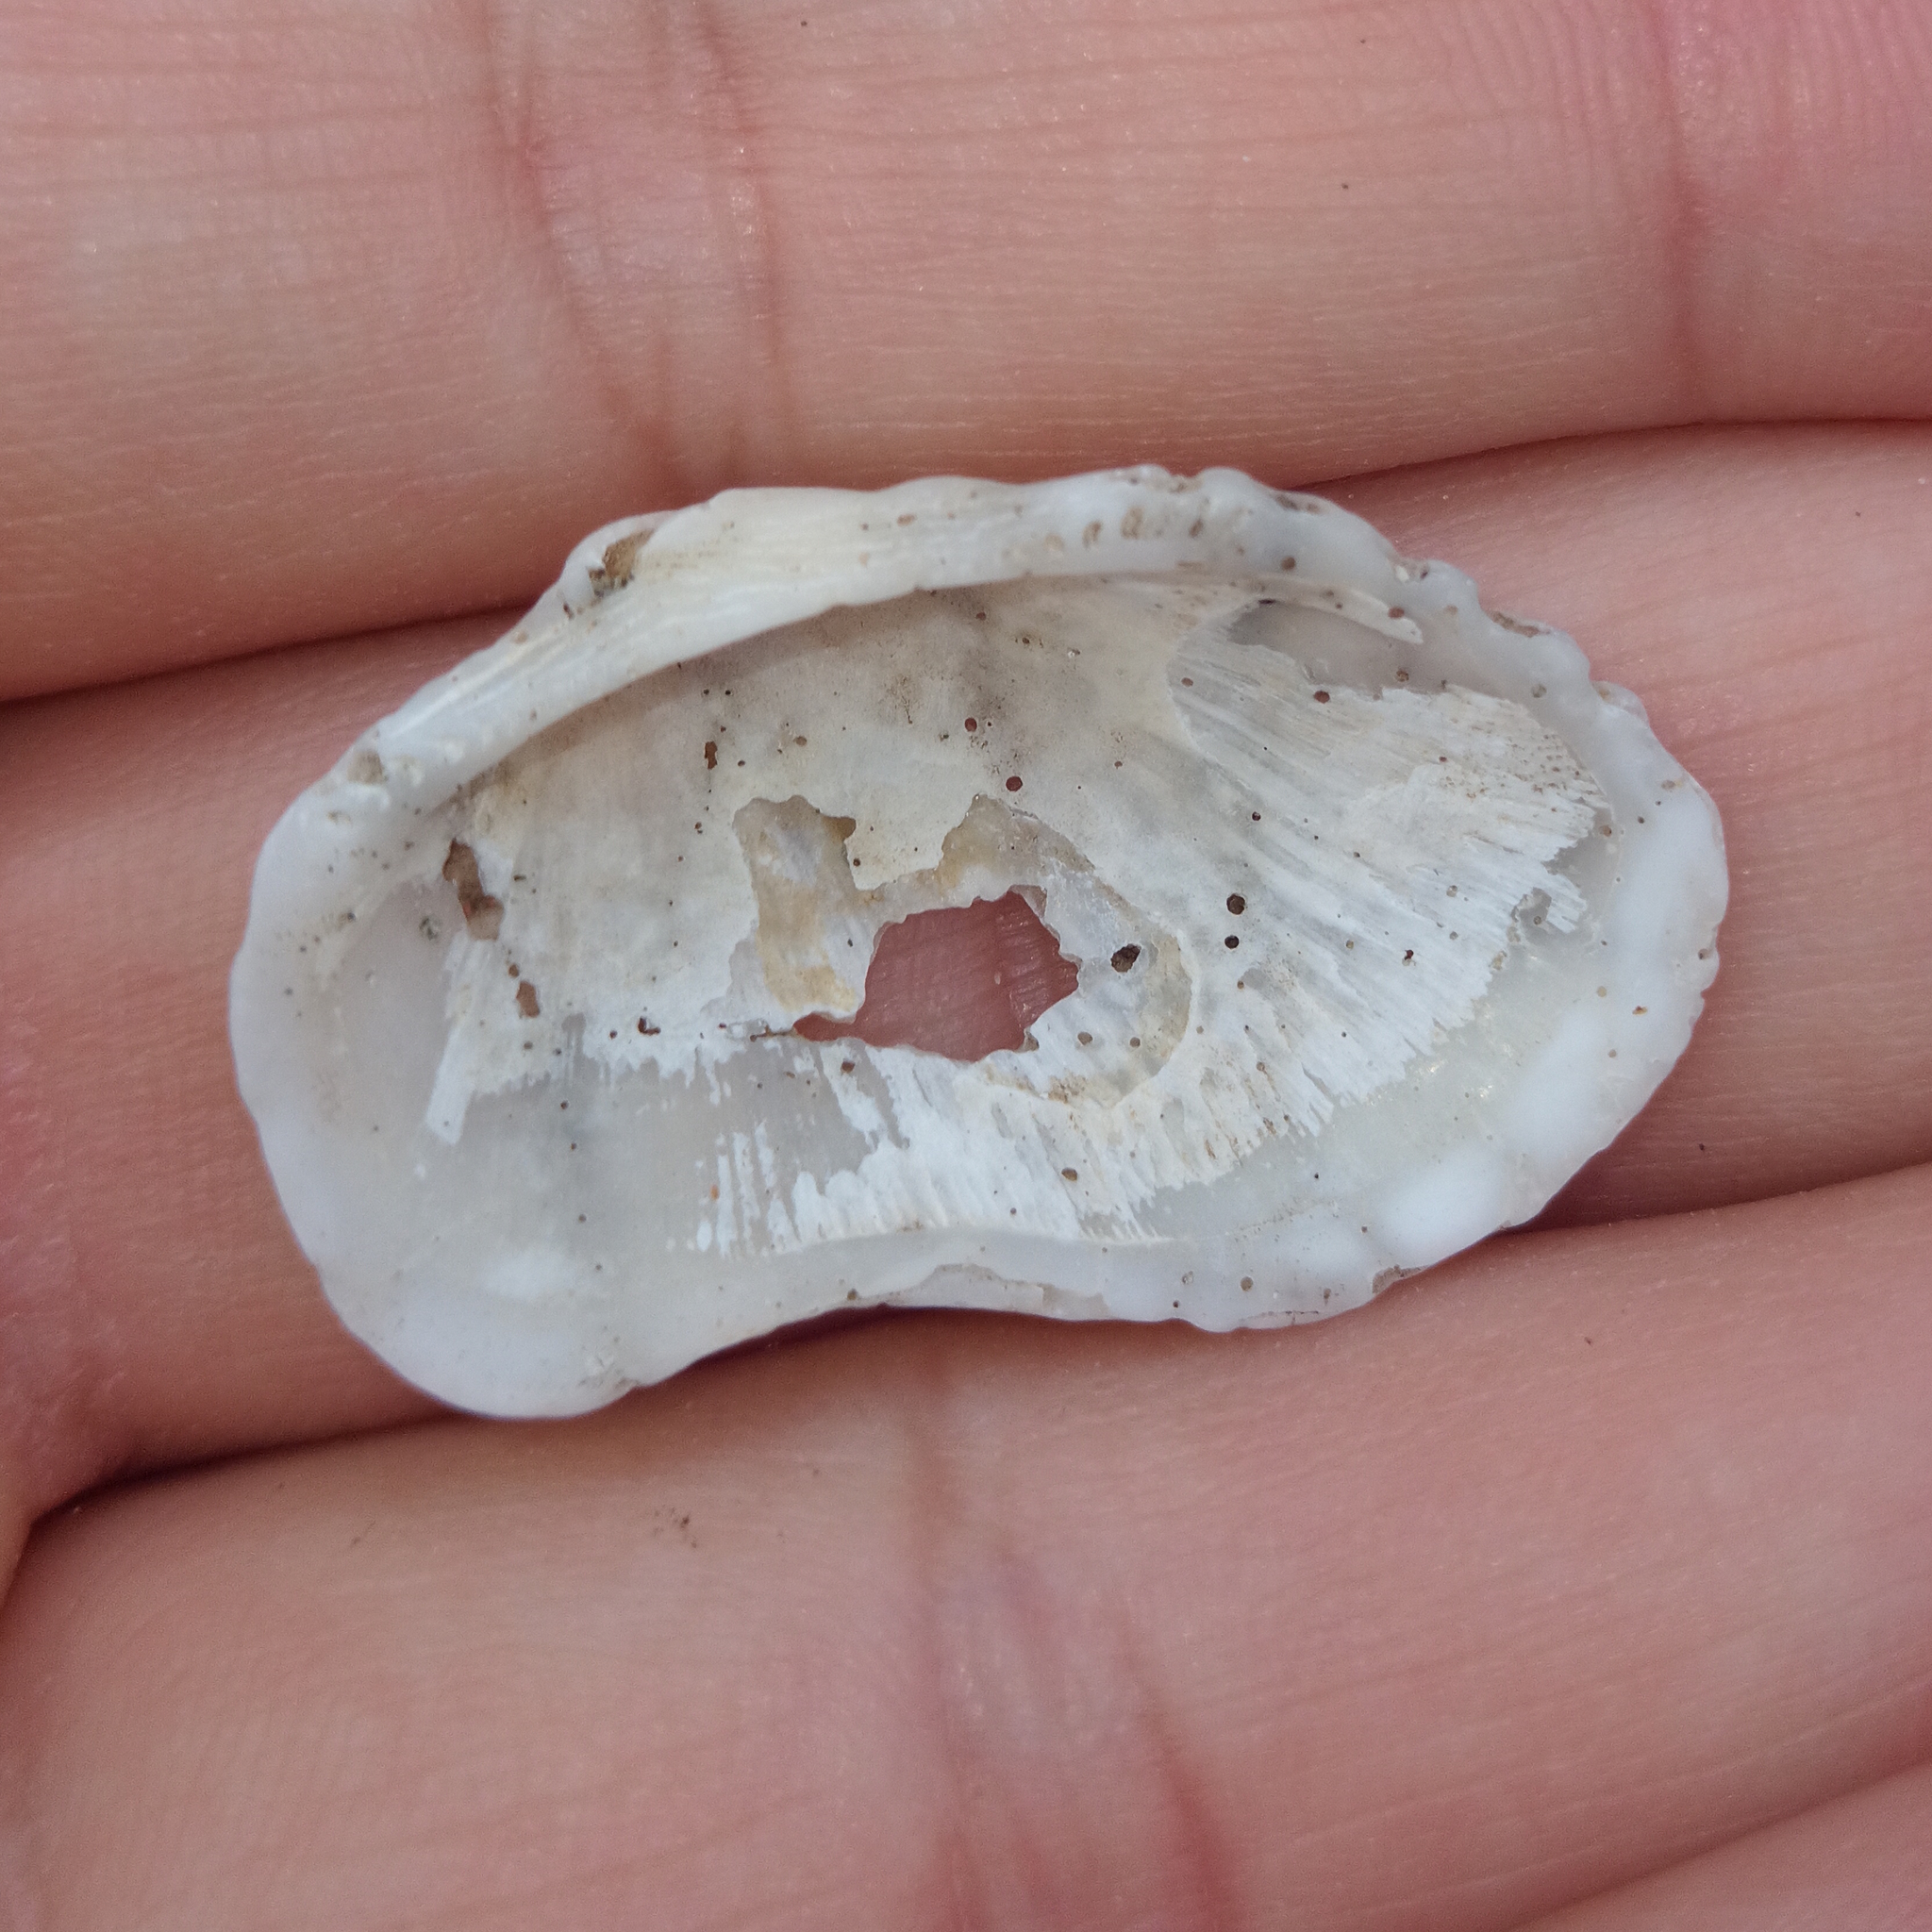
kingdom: Animalia
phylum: Mollusca
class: Bivalvia
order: Arcida
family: Arcidae
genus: Barbatia
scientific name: Barbatia candida
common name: White-beard ark
